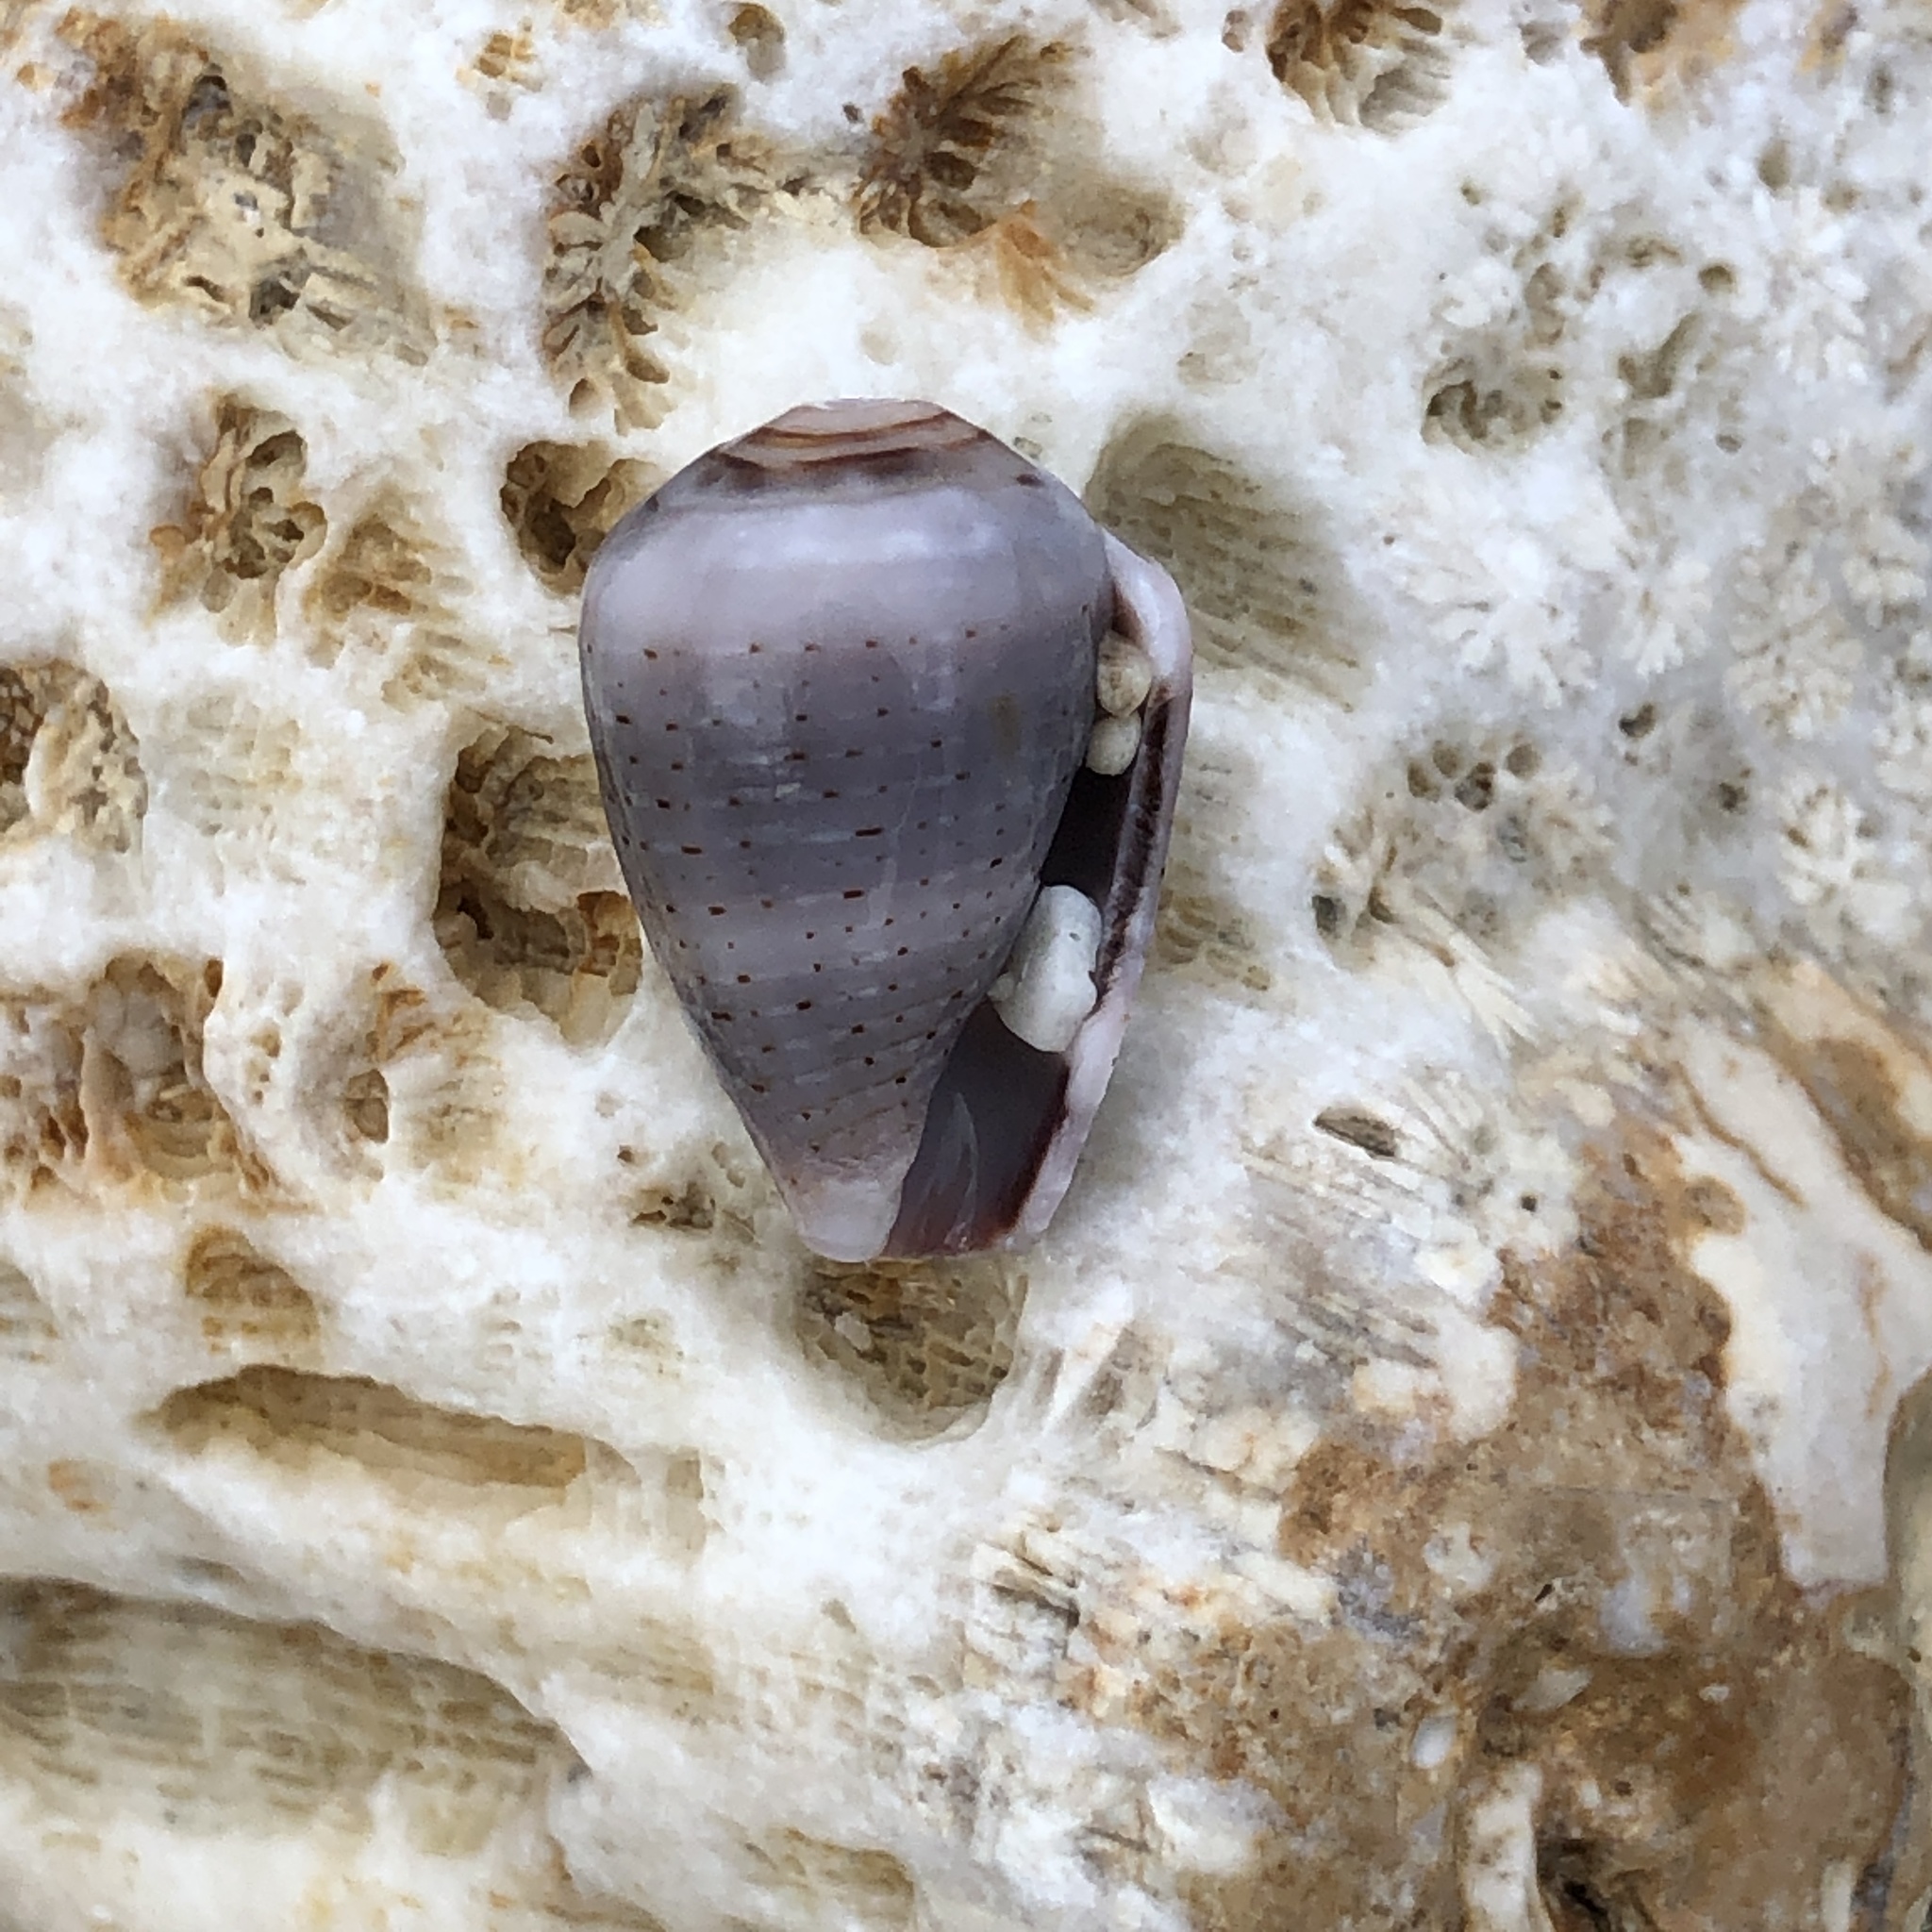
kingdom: Animalia
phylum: Mollusca
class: Gastropoda
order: Neogastropoda
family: Conidae
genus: Conus
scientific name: Conus coronatus
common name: Coronated cone
